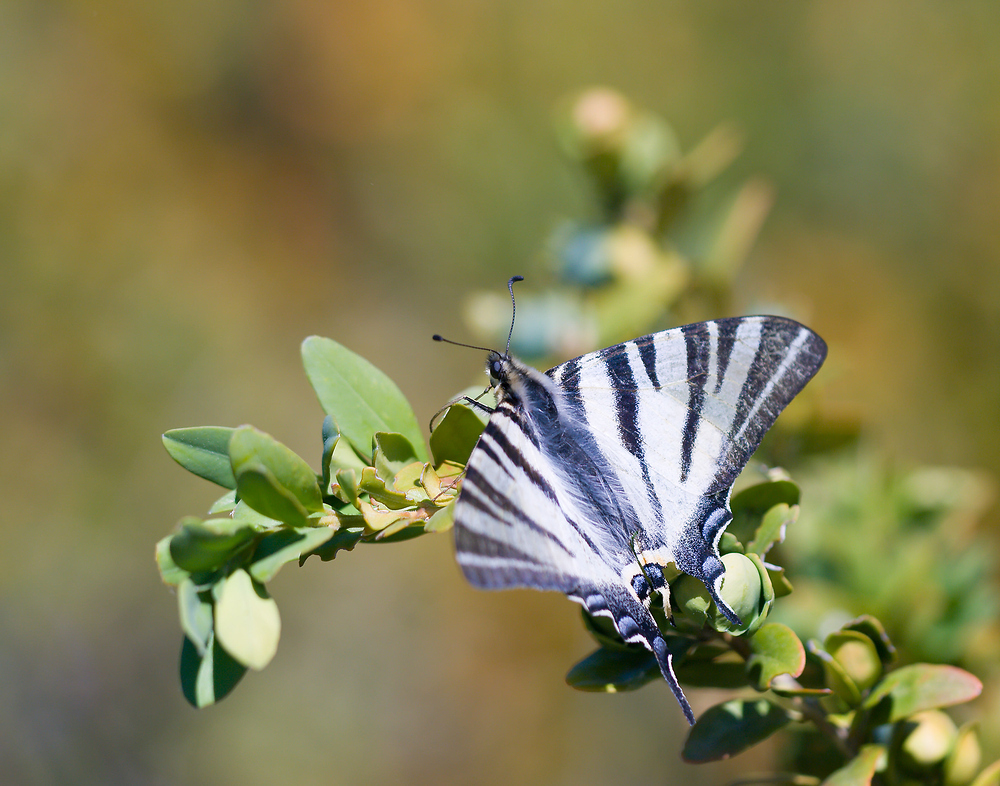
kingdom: Animalia
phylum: Arthropoda
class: Insecta
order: Lepidoptera
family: Papilionidae
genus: Iphiclides
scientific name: Iphiclides podalirius
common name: Scarce swallowtail
